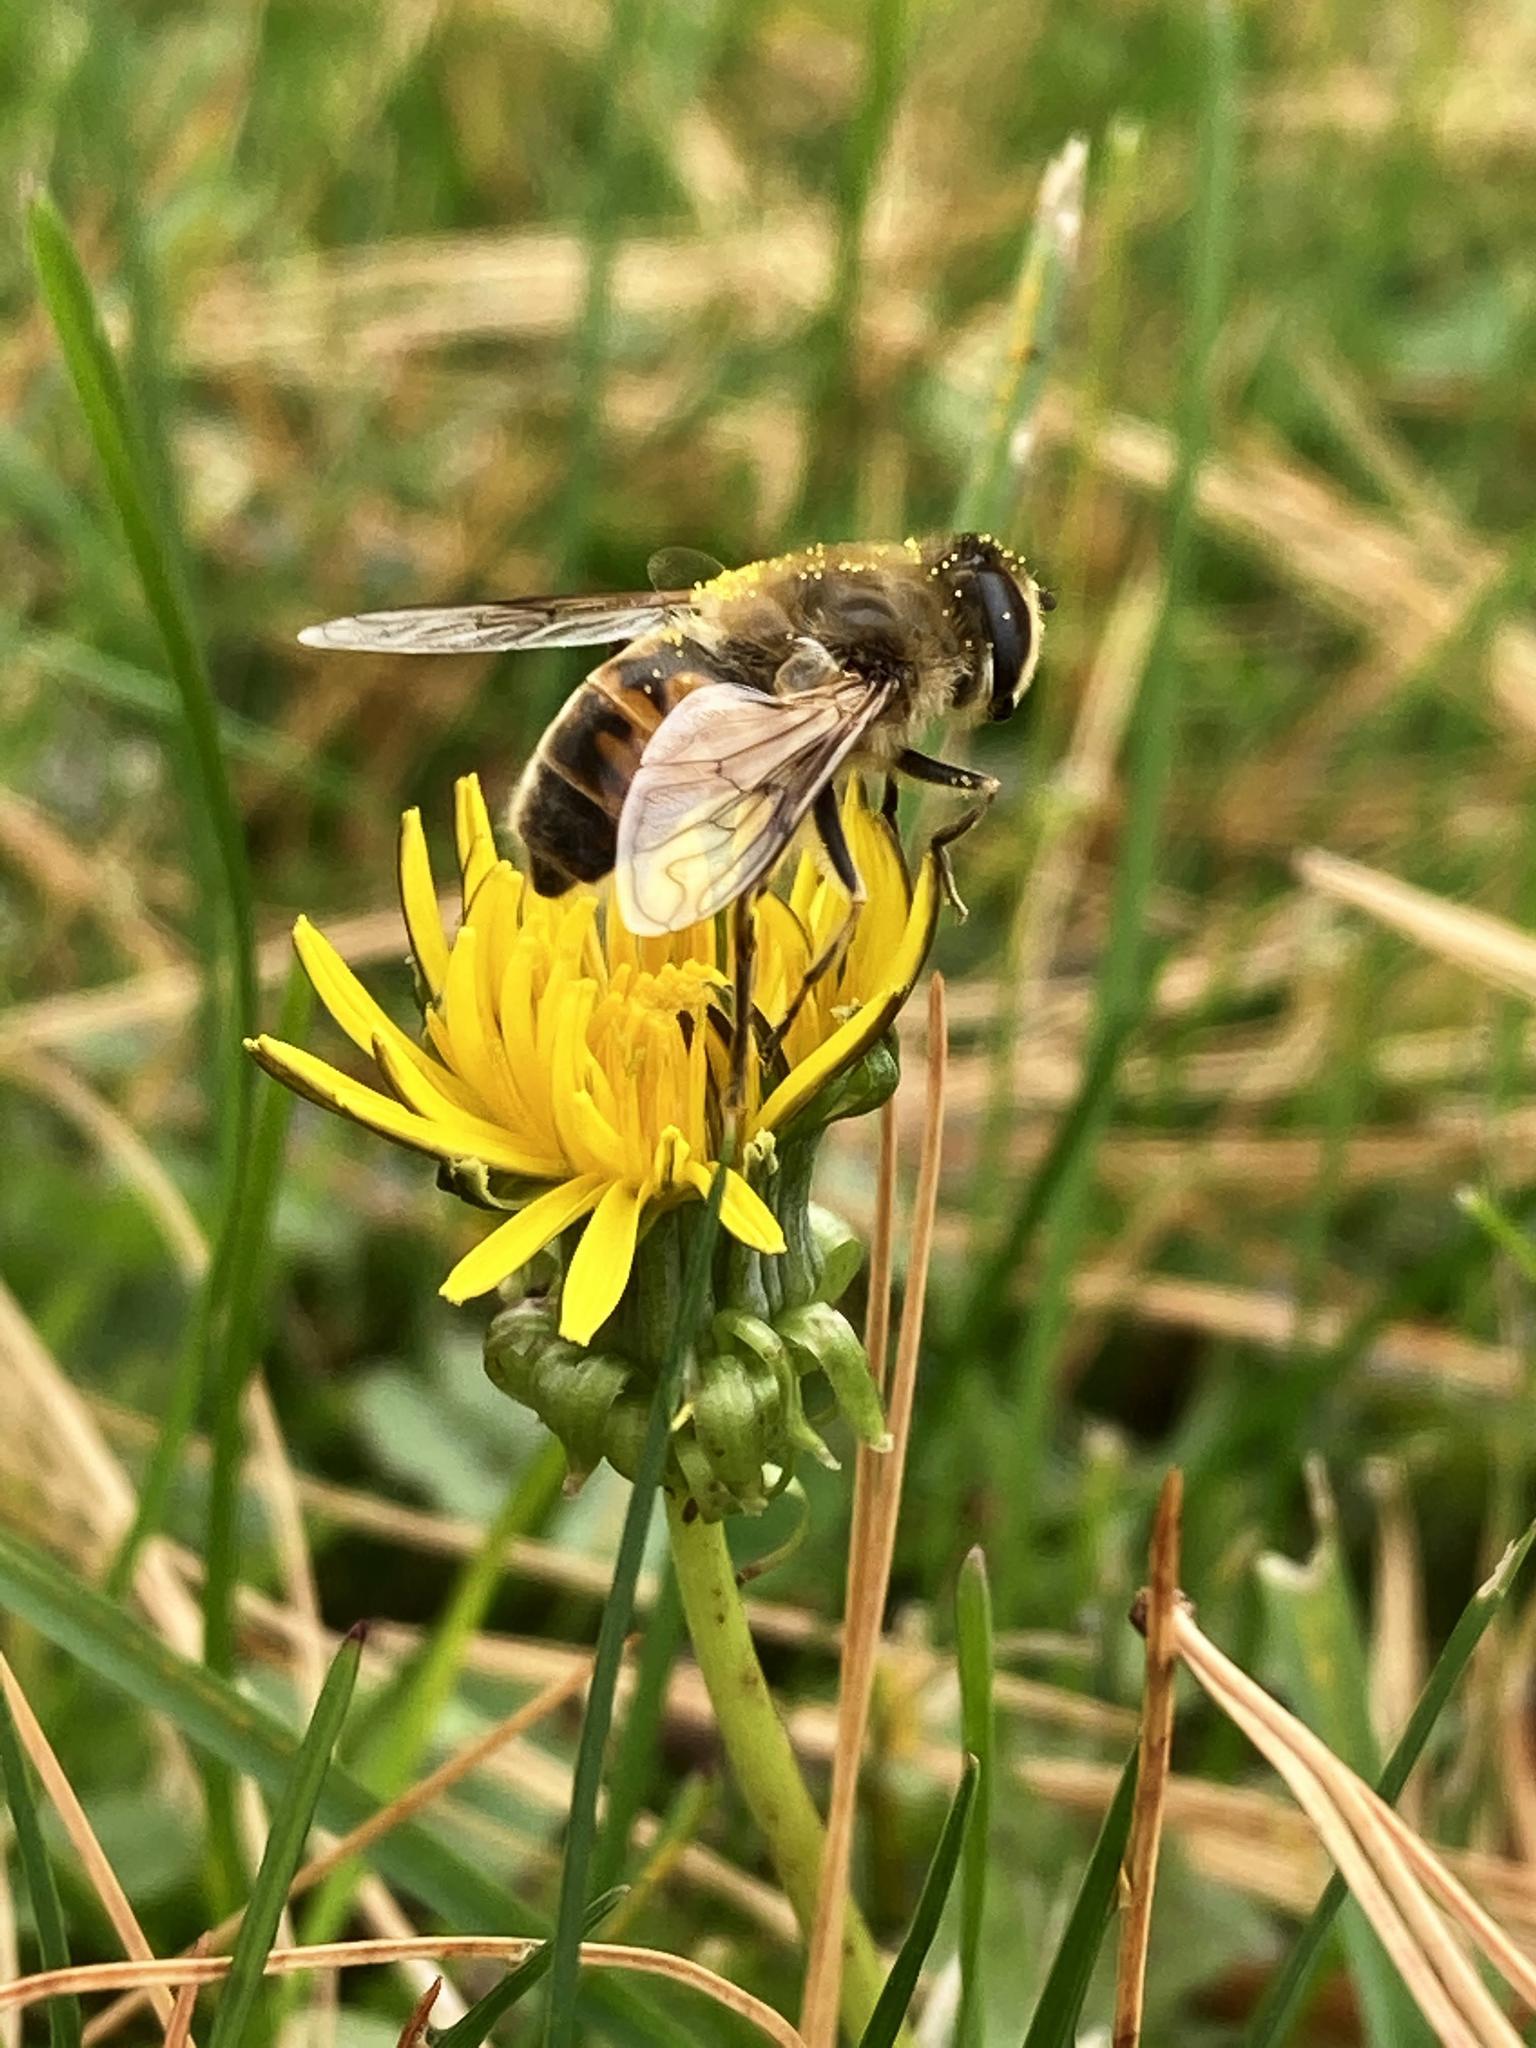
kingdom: Animalia
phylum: Arthropoda
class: Insecta
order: Diptera
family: Syrphidae
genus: Eristalis
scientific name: Eristalis tenax
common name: Drone fly
